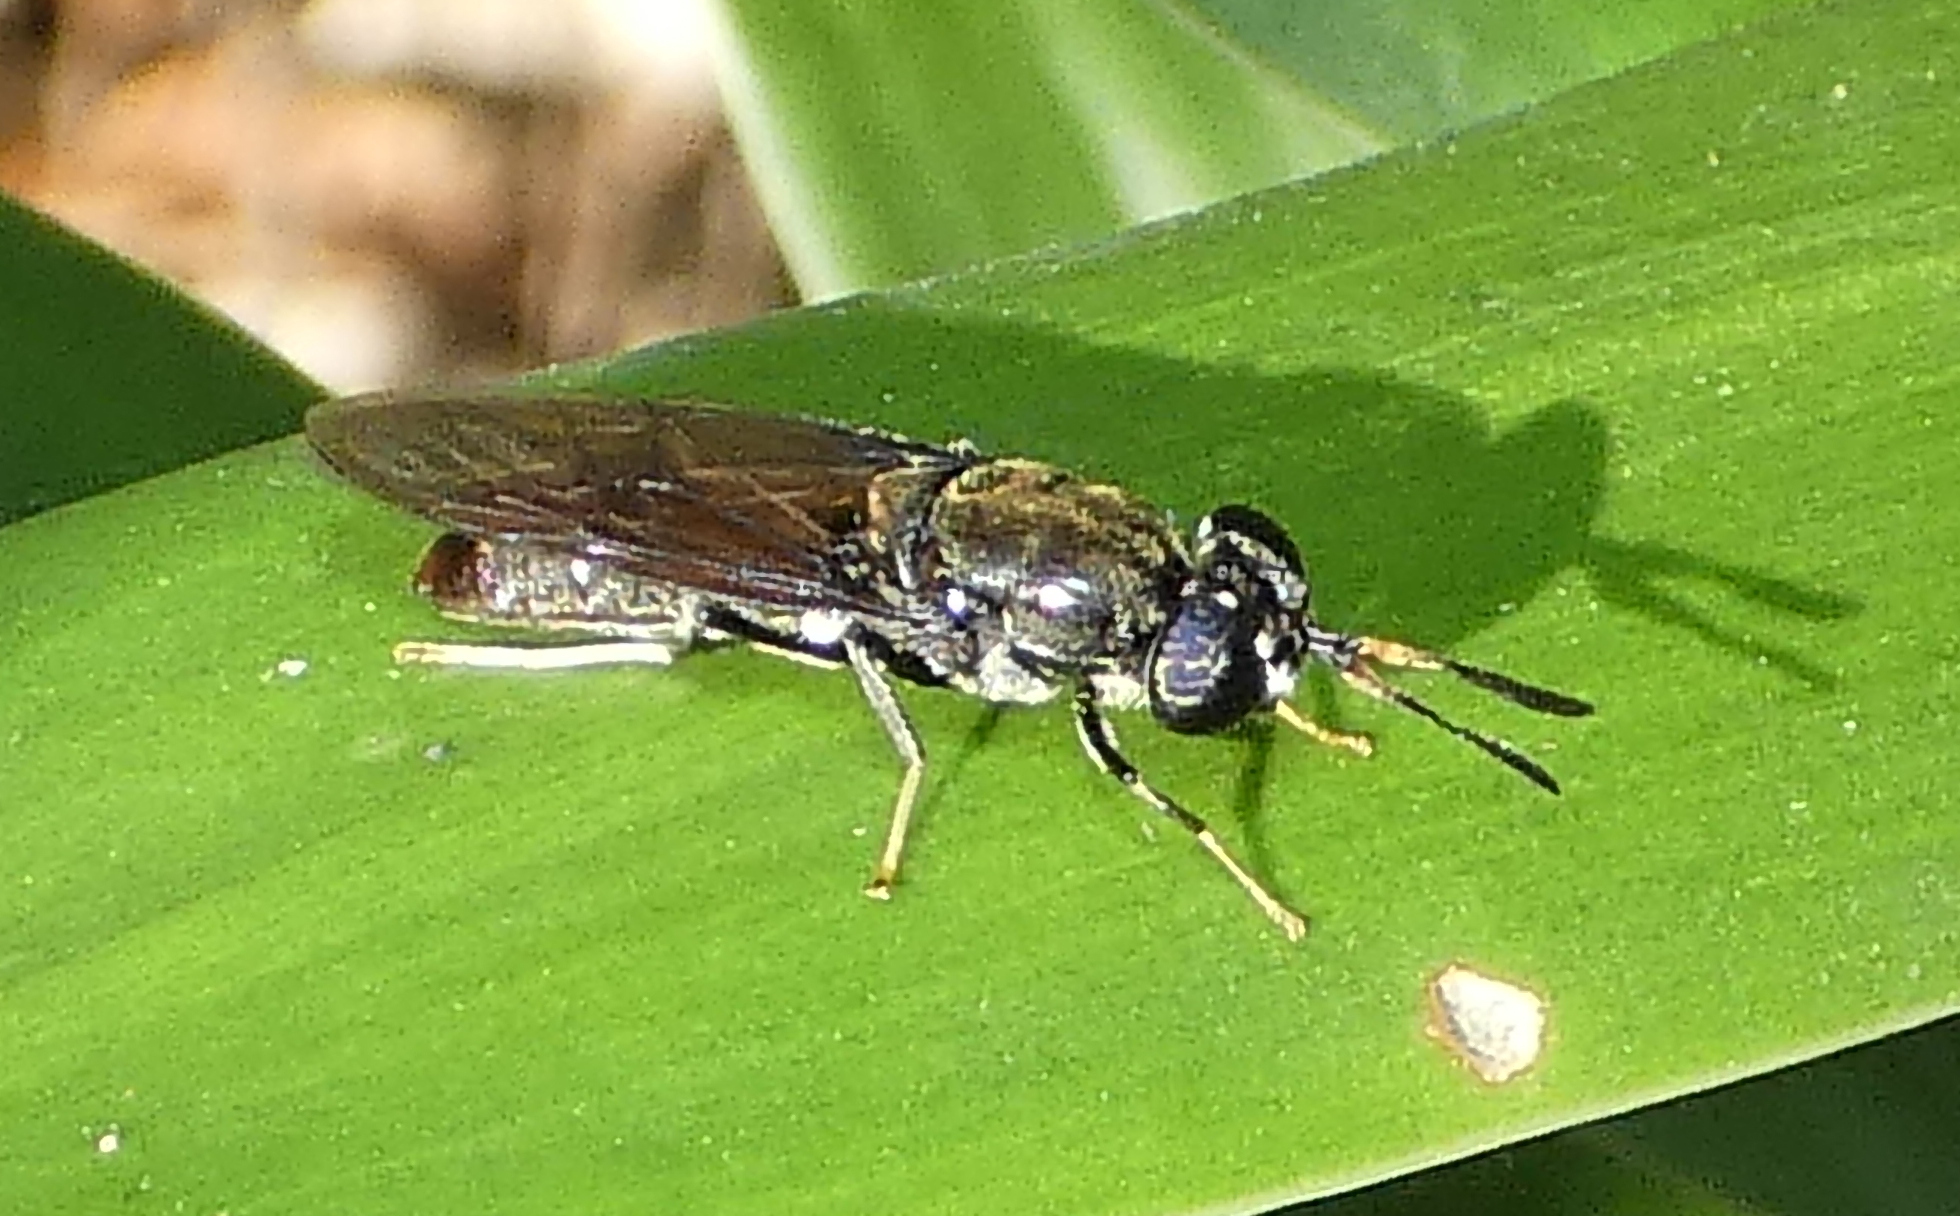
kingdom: Animalia
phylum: Arthropoda
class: Insecta
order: Diptera
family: Stratiomyidae
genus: Hermetia
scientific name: Hermetia illucens
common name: Black soldier fly
